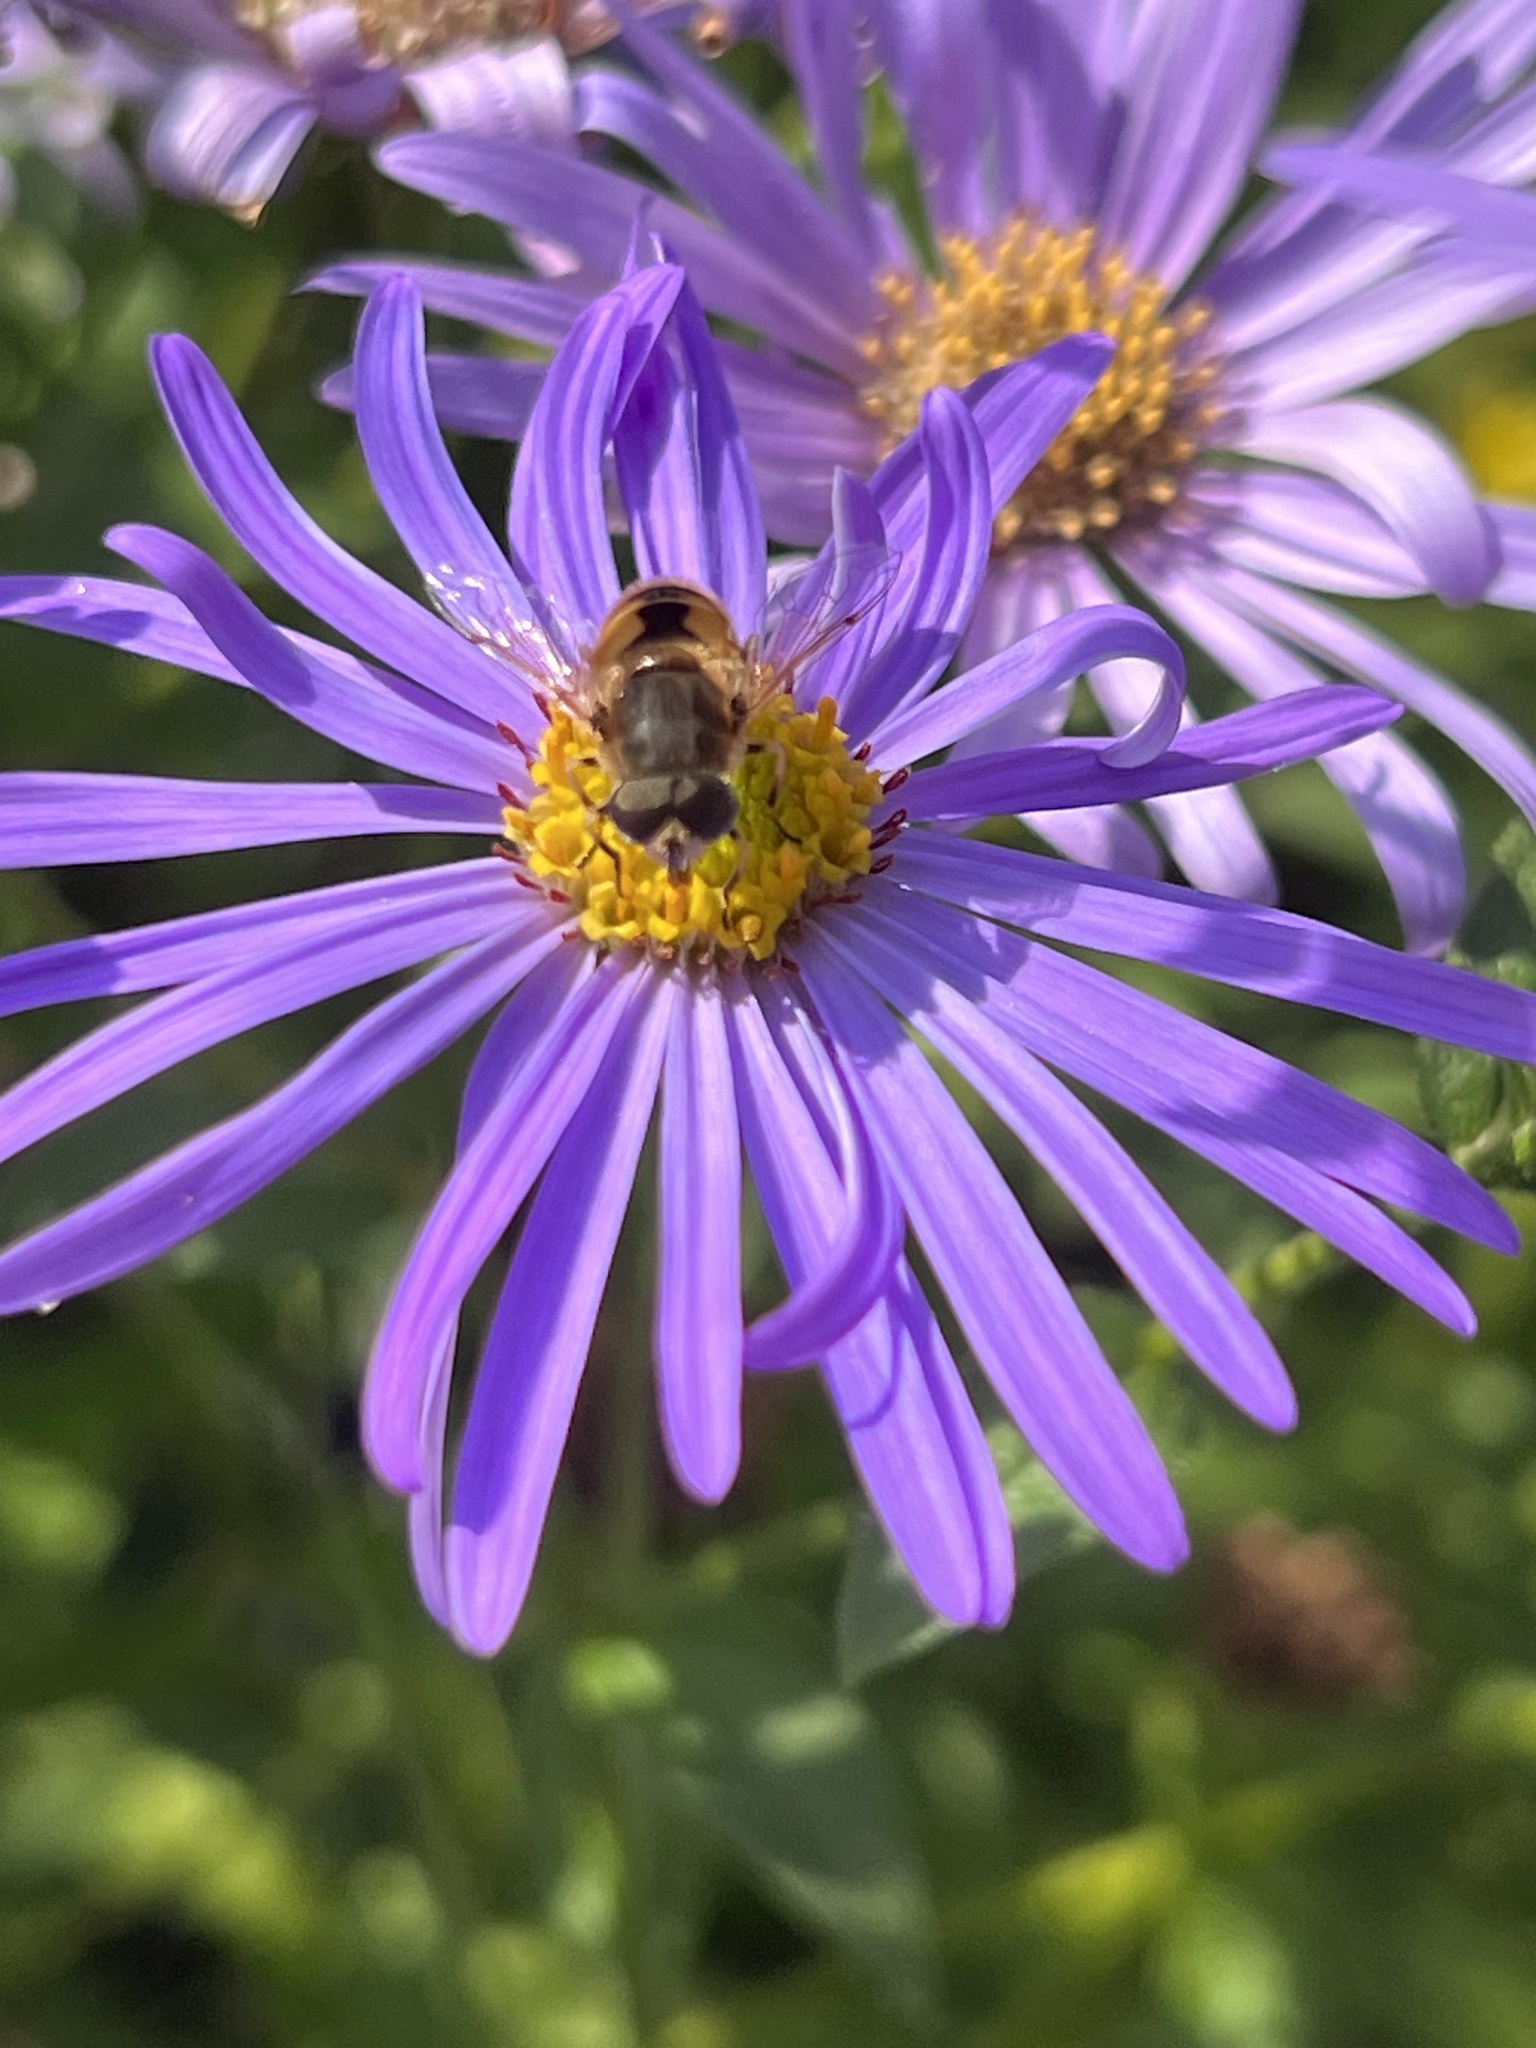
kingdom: Animalia
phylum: Arthropoda
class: Insecta
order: Diptera
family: Syrphidae
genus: Eristalis
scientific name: Eristalis arbustorum
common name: Hover fly
